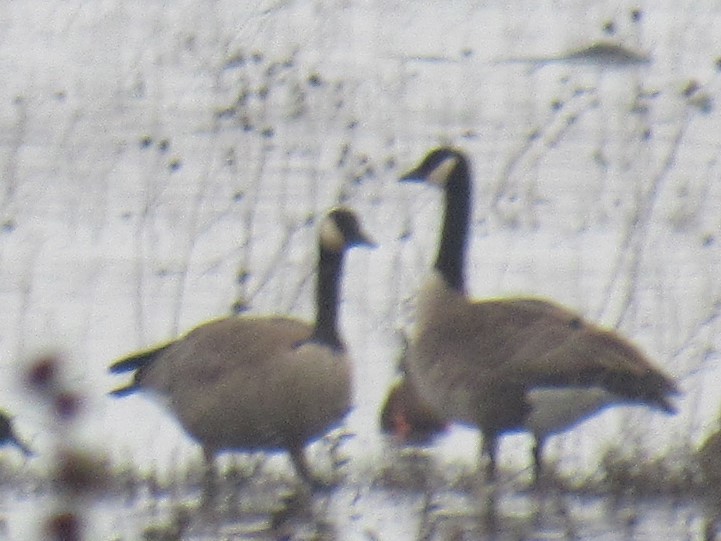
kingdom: Animalia
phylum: Chordata
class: Aves
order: Anseriformes
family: Anatidae
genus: Branta
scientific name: Branta canadensis
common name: Canada goose
